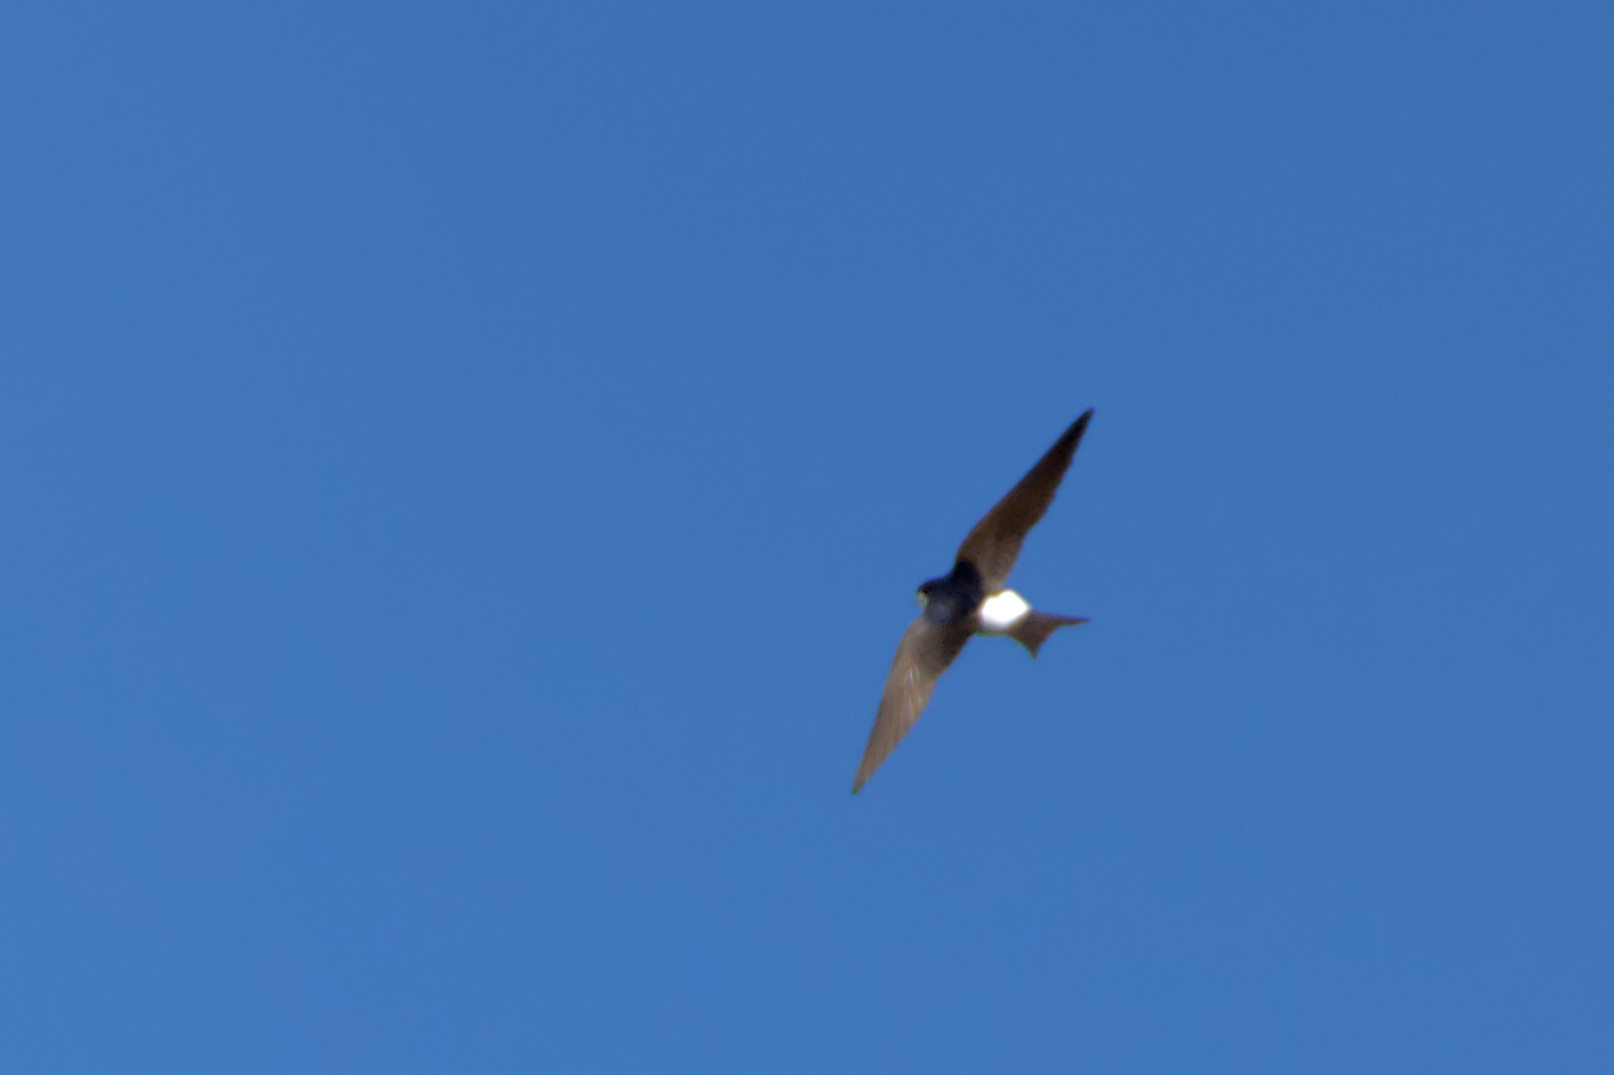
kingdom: Animalia
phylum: Chordata
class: Aves
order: Passeriformes
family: Hirundinidae
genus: Delichon
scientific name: Delichon urbicum
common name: Common house martin
